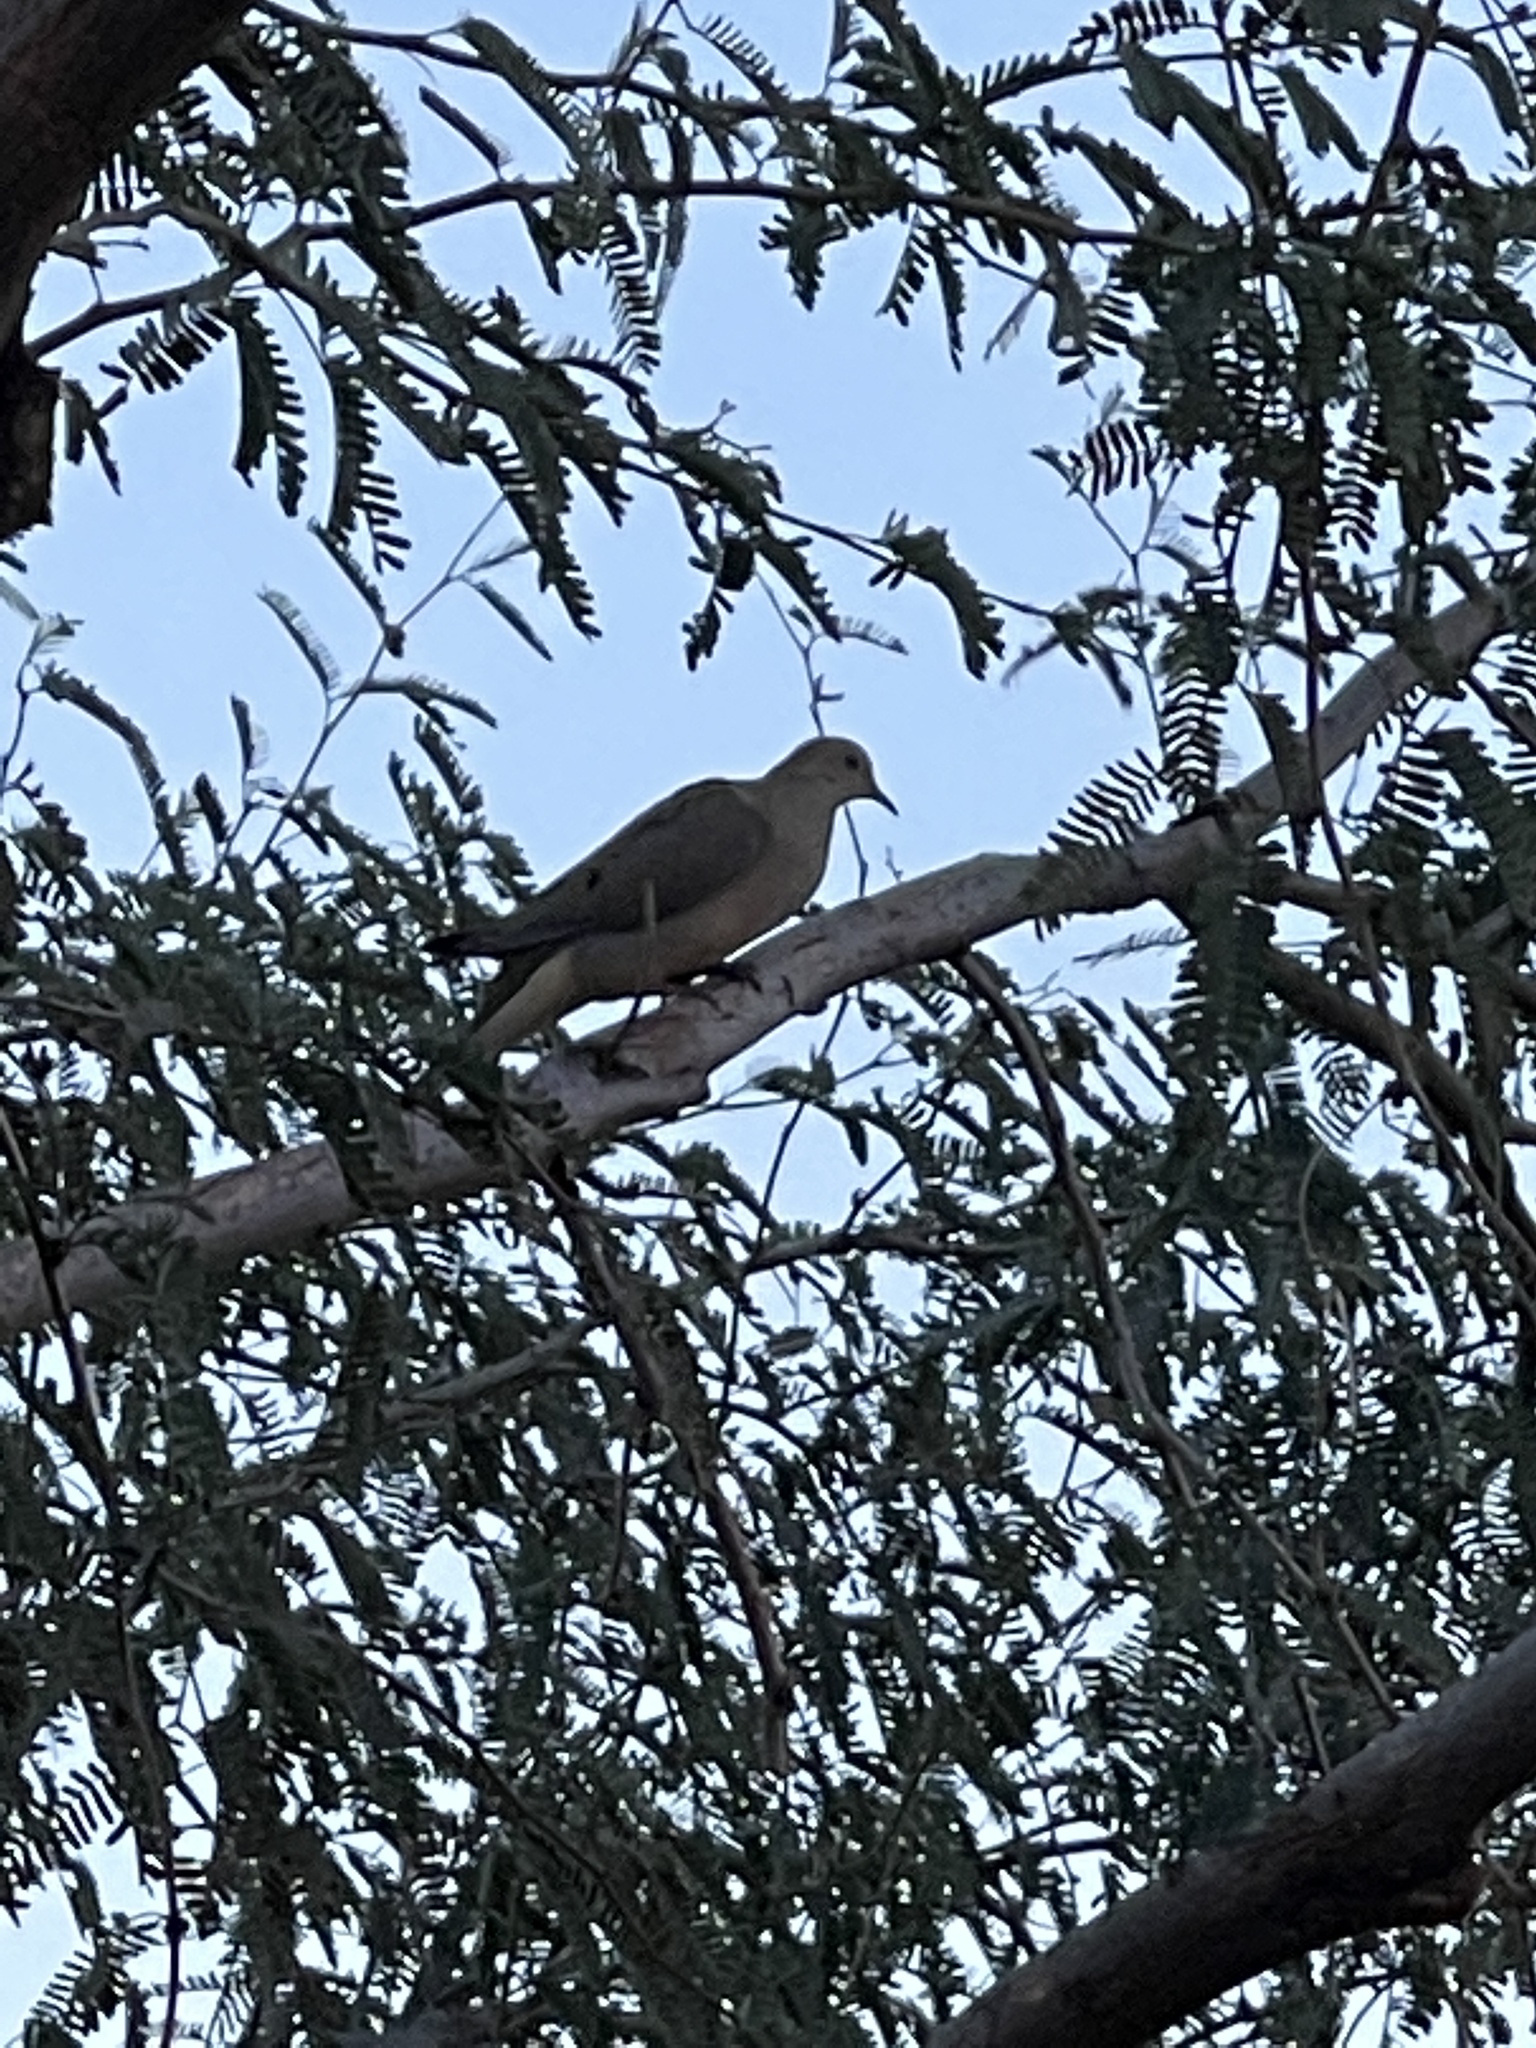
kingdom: Animalia
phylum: Chordata
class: Aves
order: Columbiformes
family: Columbidae
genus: Zenaida
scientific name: Zenaida macroura
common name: Mourning dove
